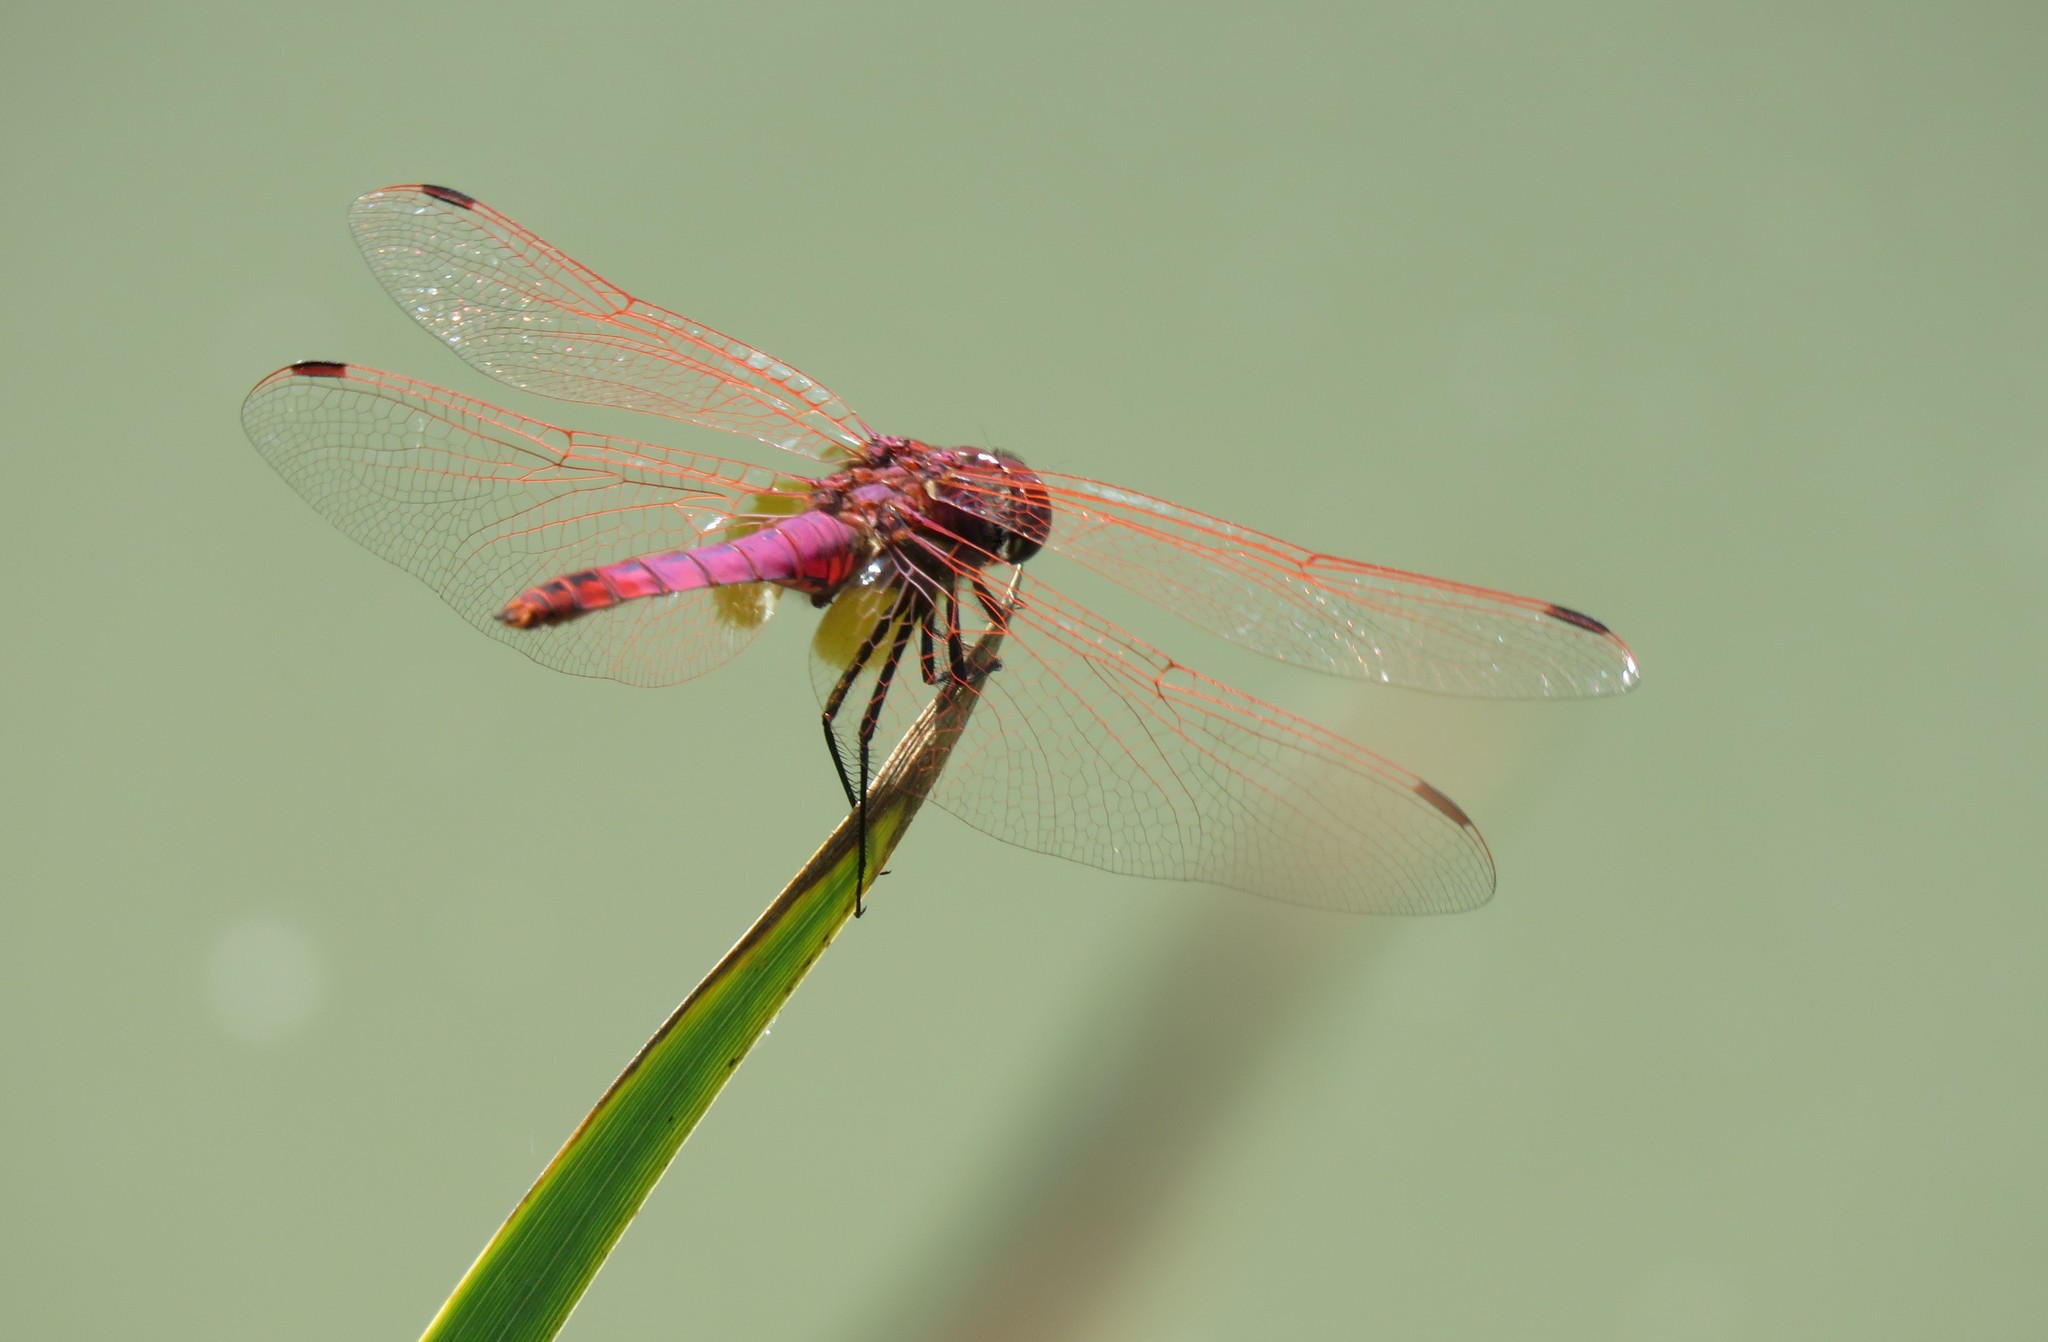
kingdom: Animalia
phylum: Arthropoda
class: Insecta
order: Odonata
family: Libellulidae
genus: Trithemis
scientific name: Trithemis annulata
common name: Violet dropwing
